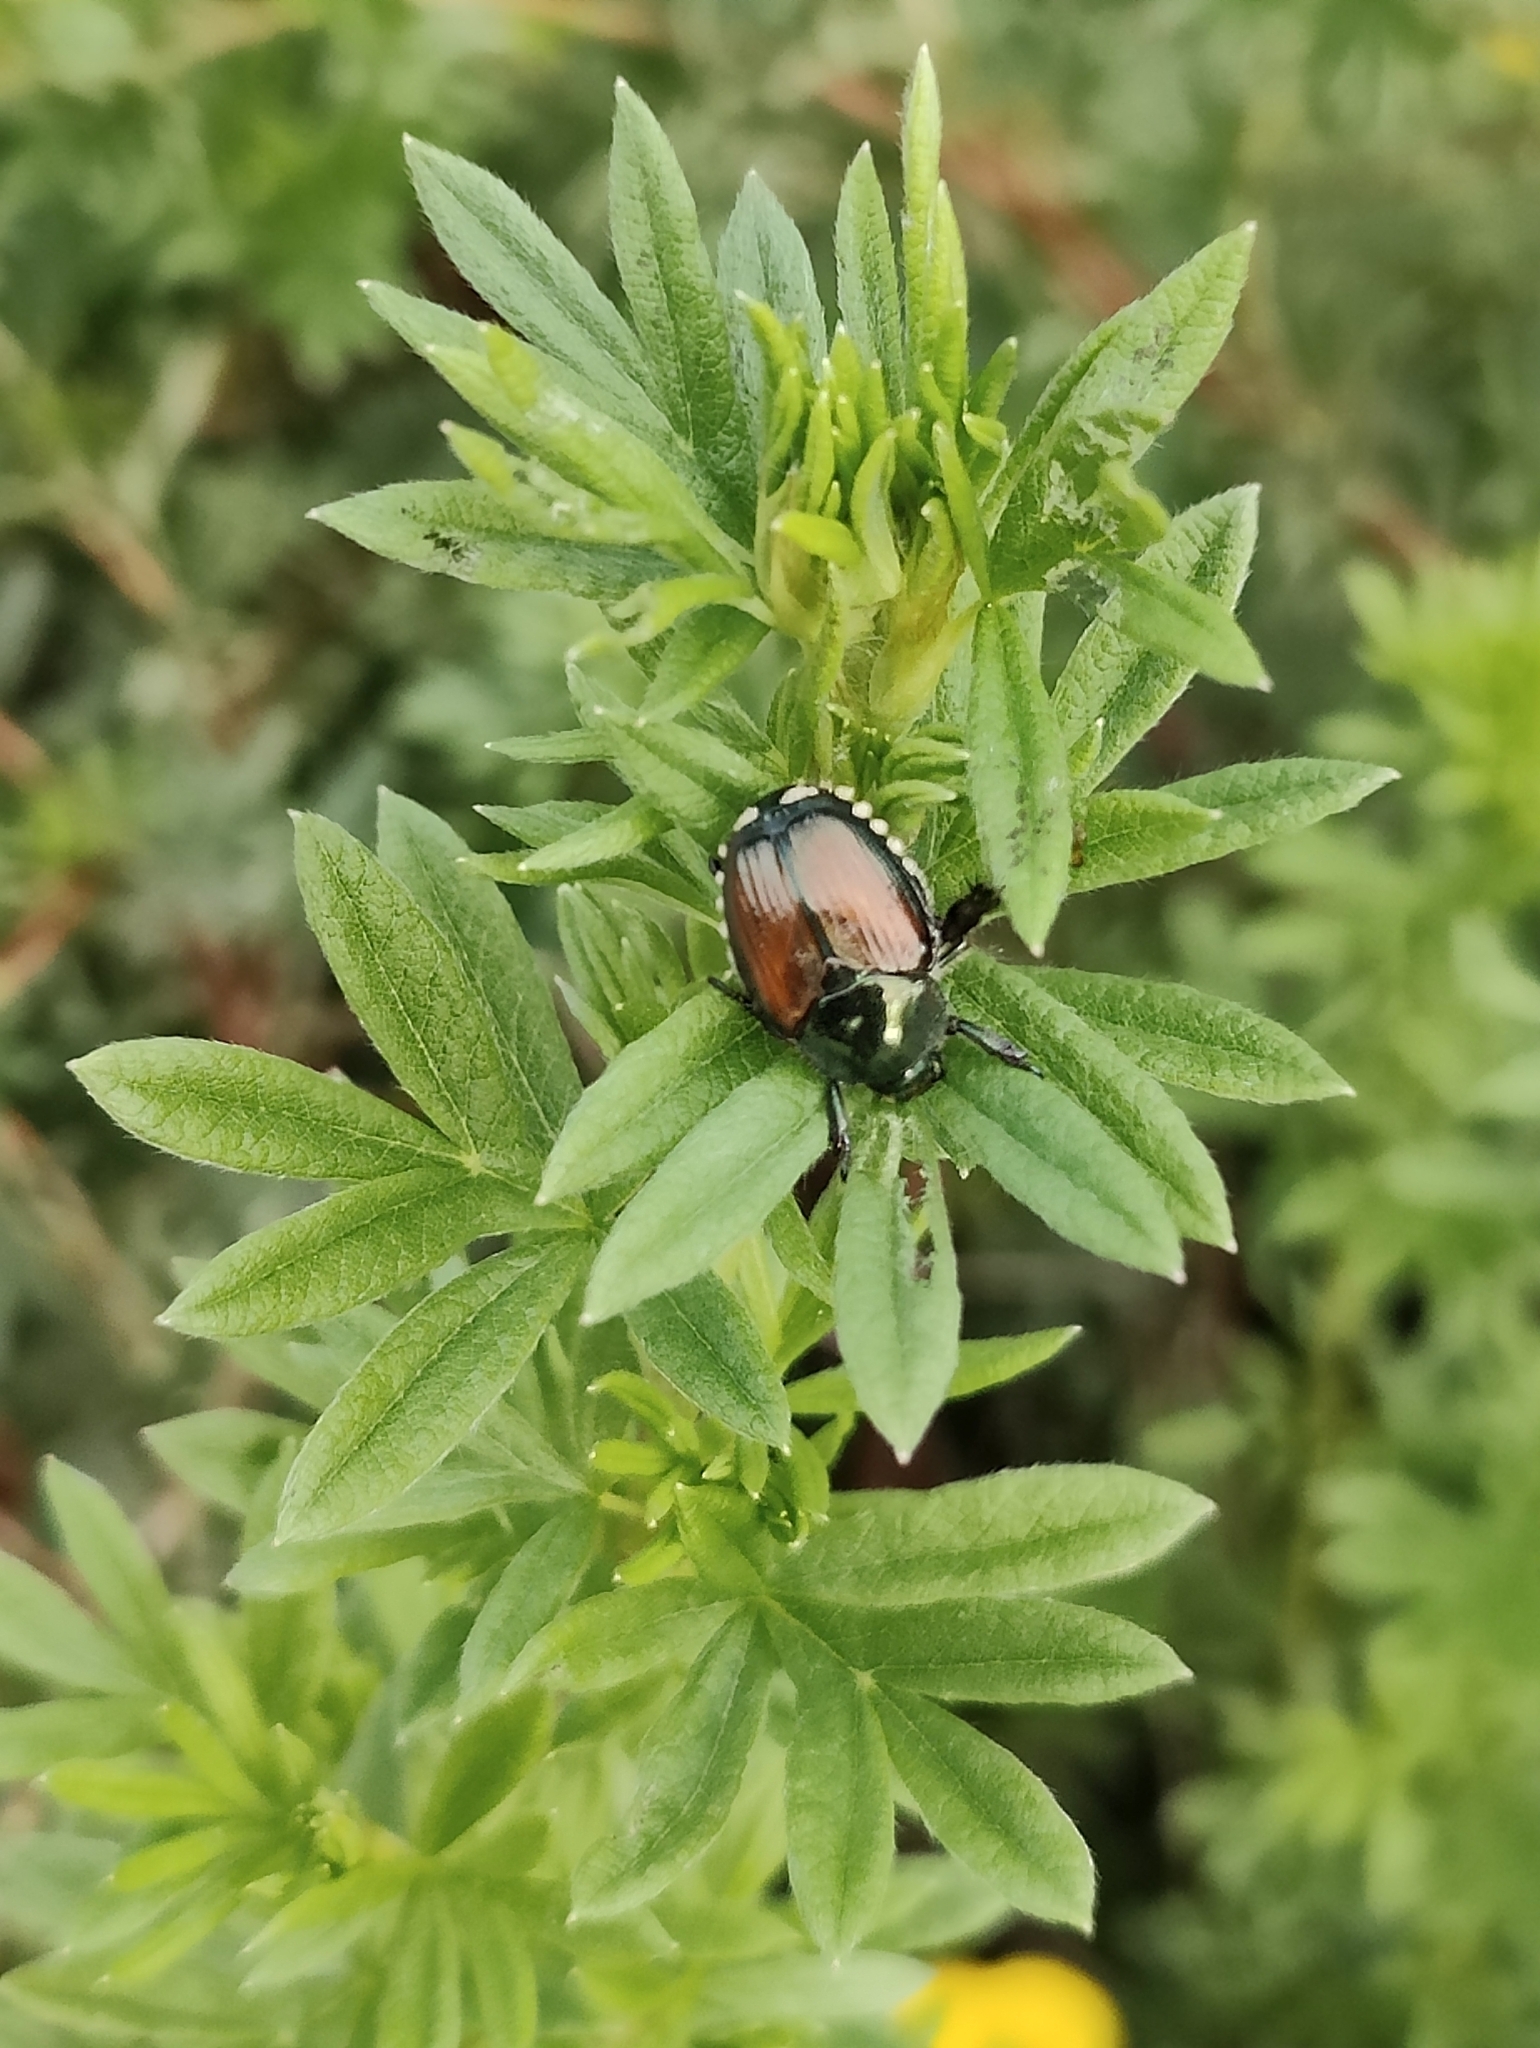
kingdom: Animalia
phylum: Arthropoda
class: Insecta
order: Coleoptera
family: Scarabaeidae
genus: Popillia
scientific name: Popillia japonica
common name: Japanese beetle
